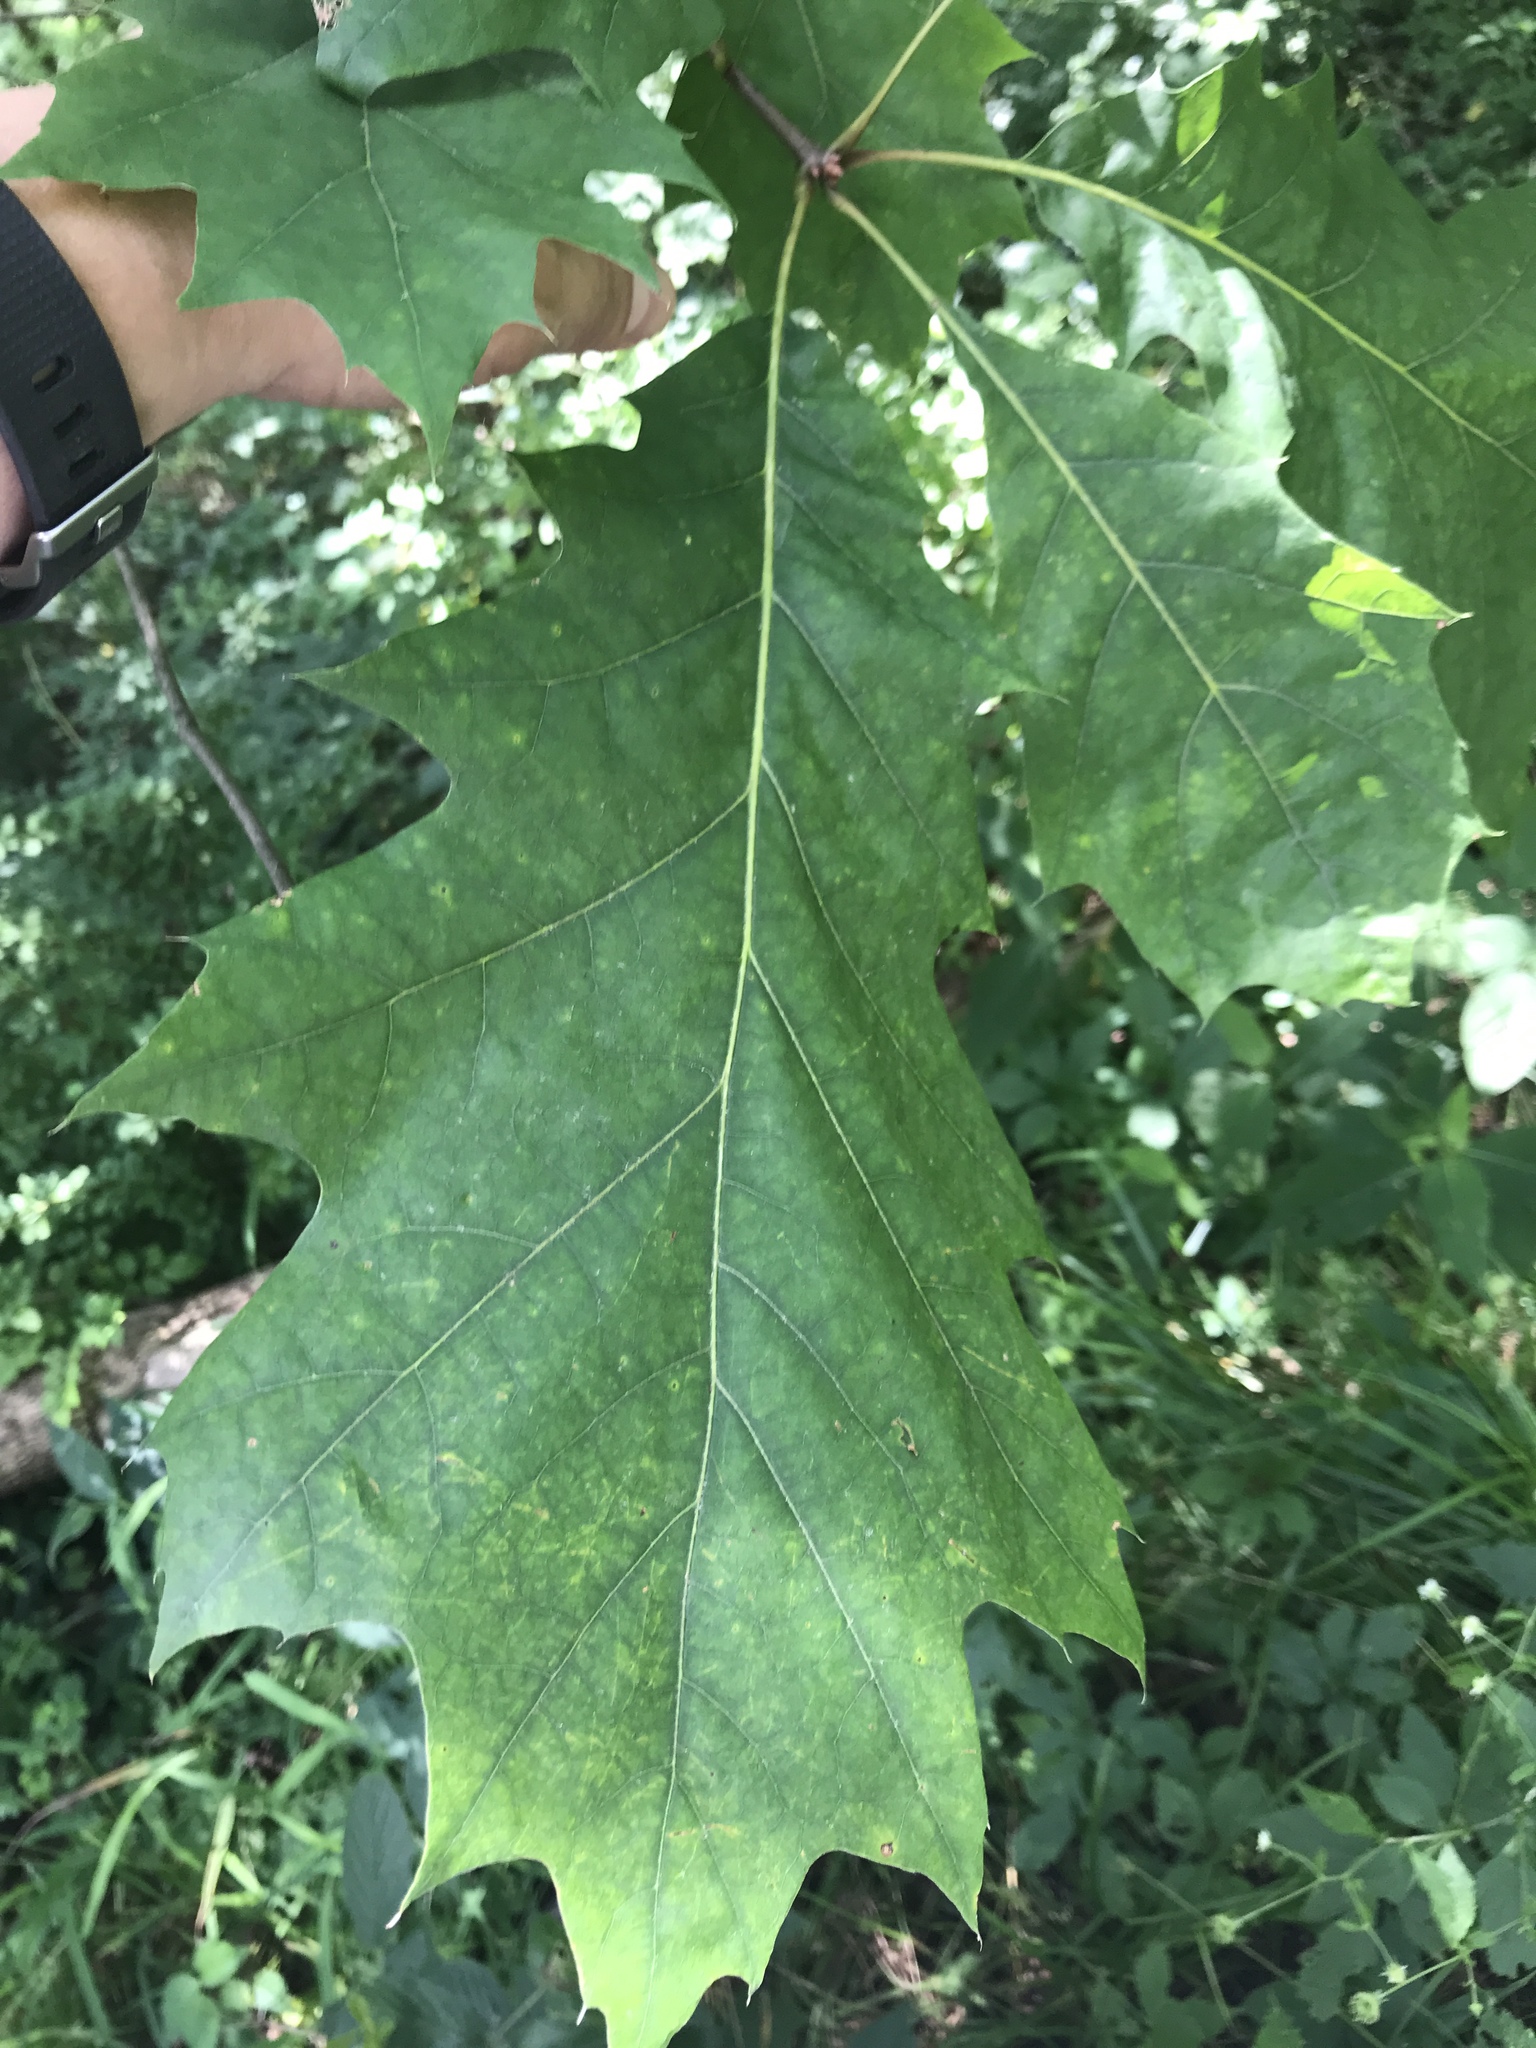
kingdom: Plantae
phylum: Tracheophyta
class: Magnoliopsida
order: Fagales
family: Fagaceae
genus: Quercus
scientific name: Quercus rubra
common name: Red oak
